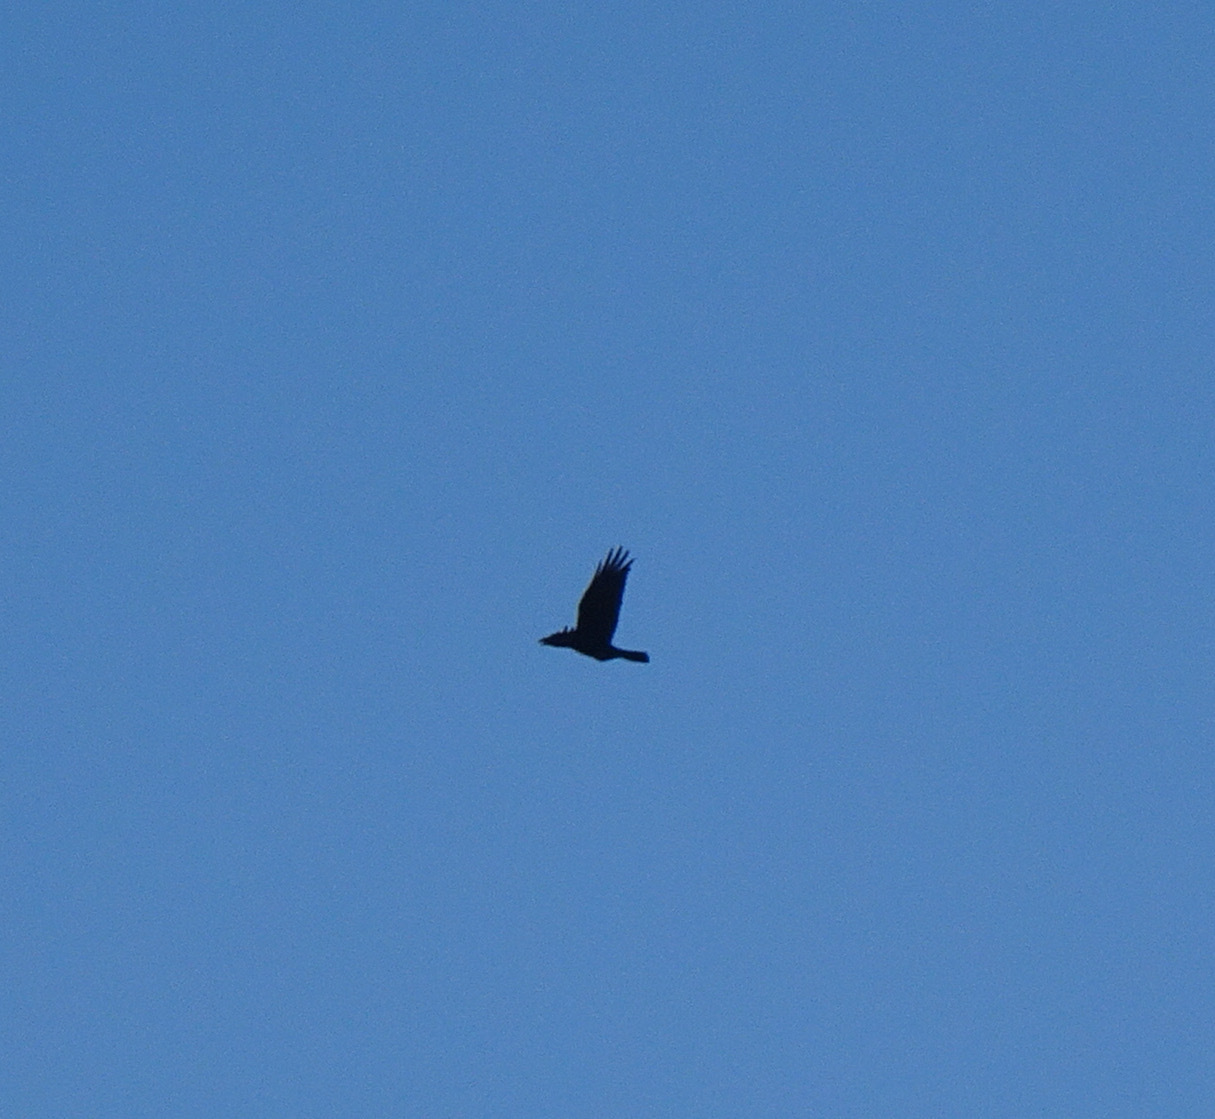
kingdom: Animalia
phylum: Chordata
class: Aves
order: Passeriformes
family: Corvidae
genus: Corvus
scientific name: Corvus corax
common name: Common raven
